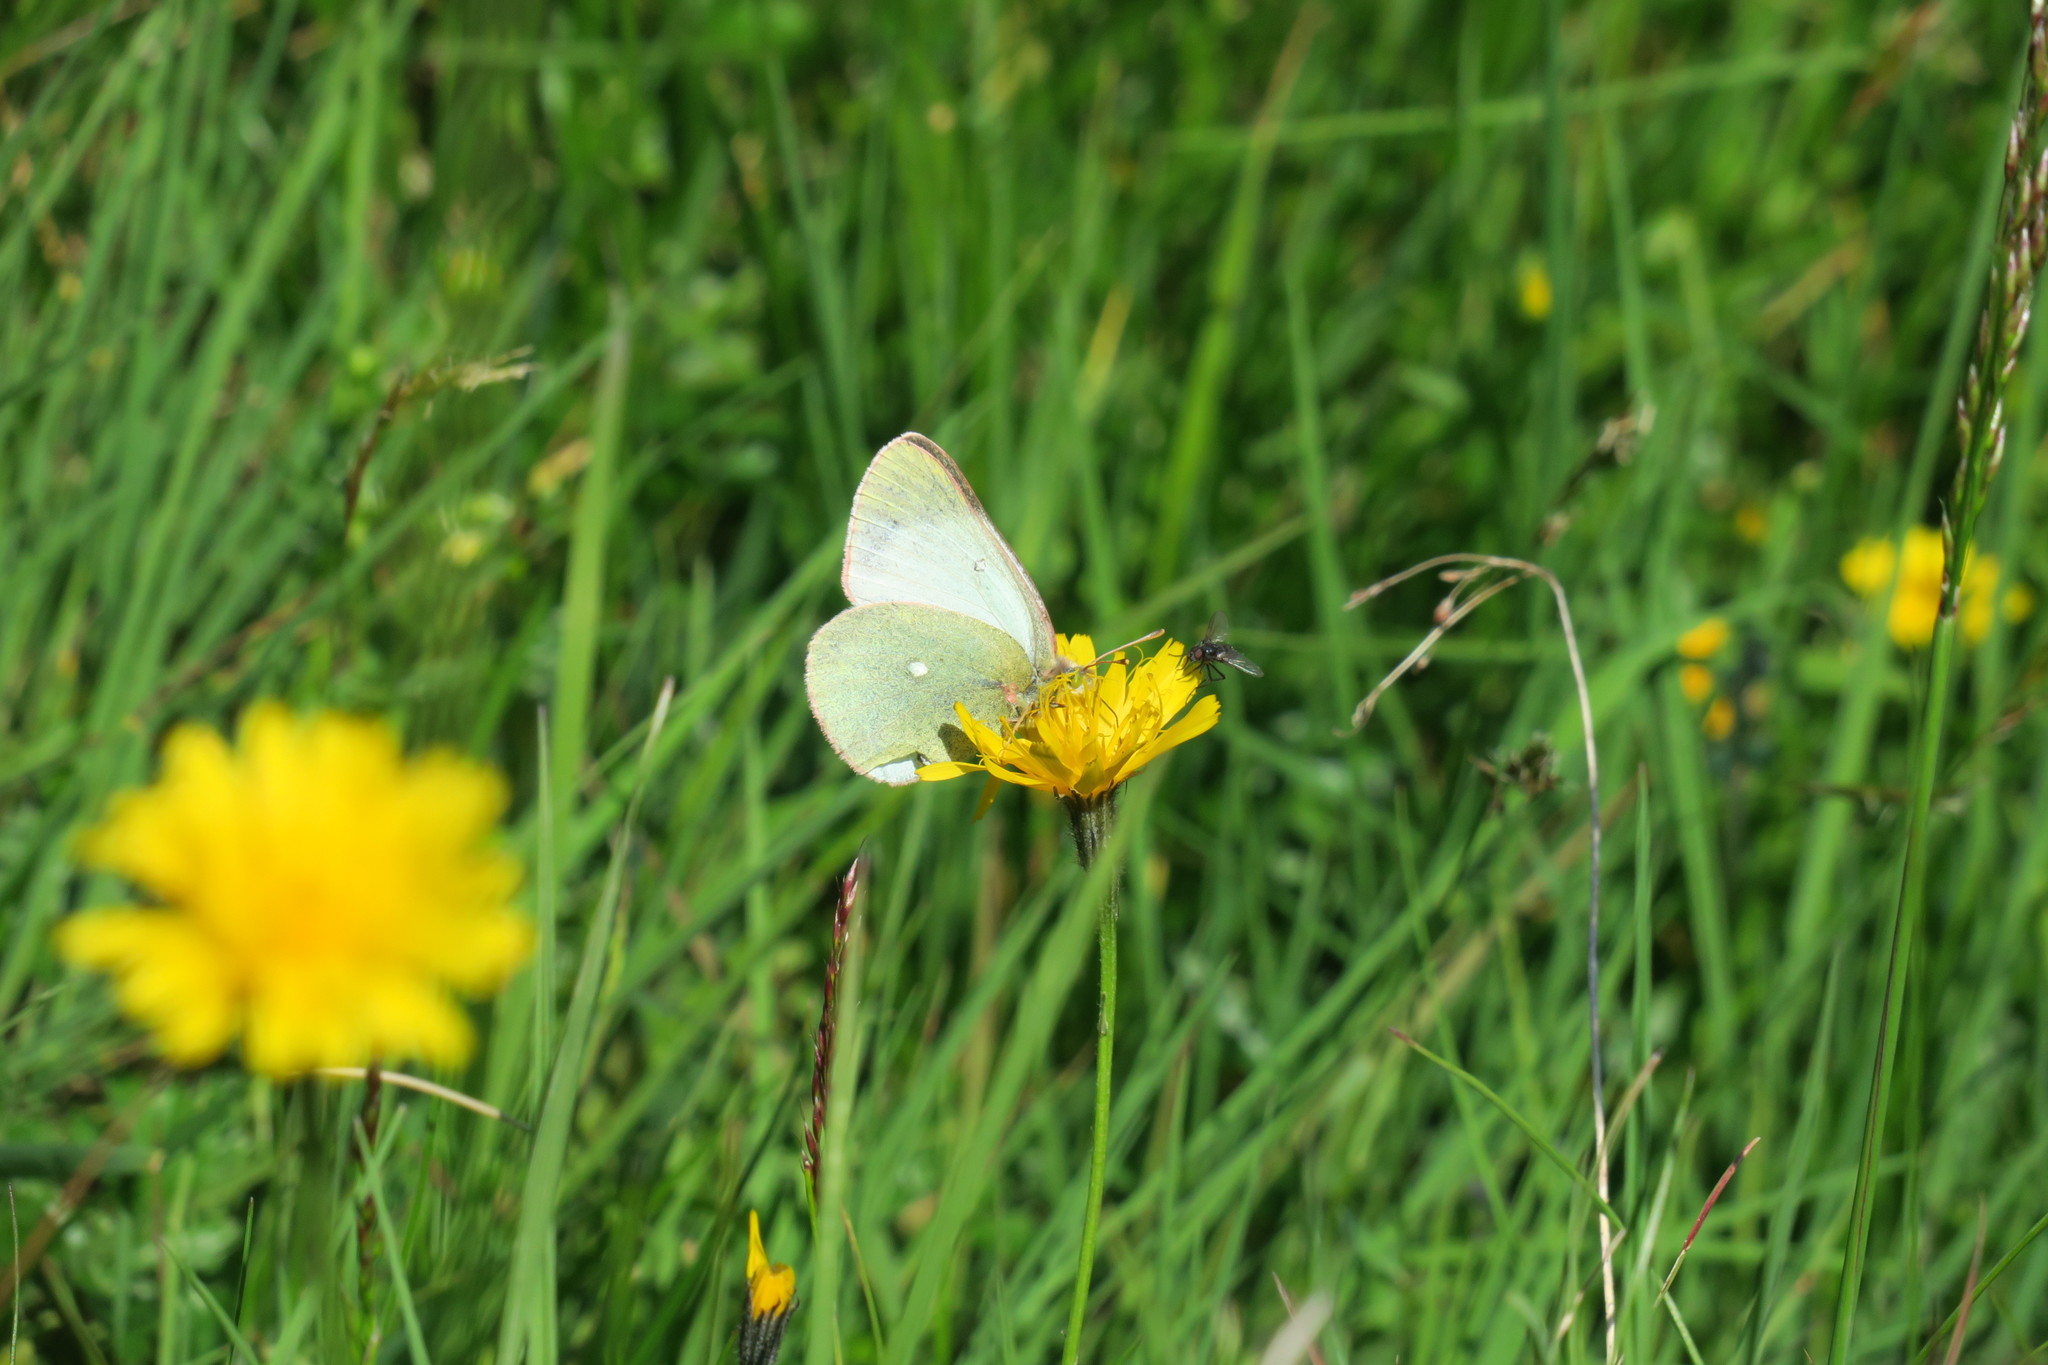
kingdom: Animalia
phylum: Arthropoda
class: Insecta
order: Lepidoptera
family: Pieridae
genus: Colias
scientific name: Colias palaeno
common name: Moorland clouded yellow
